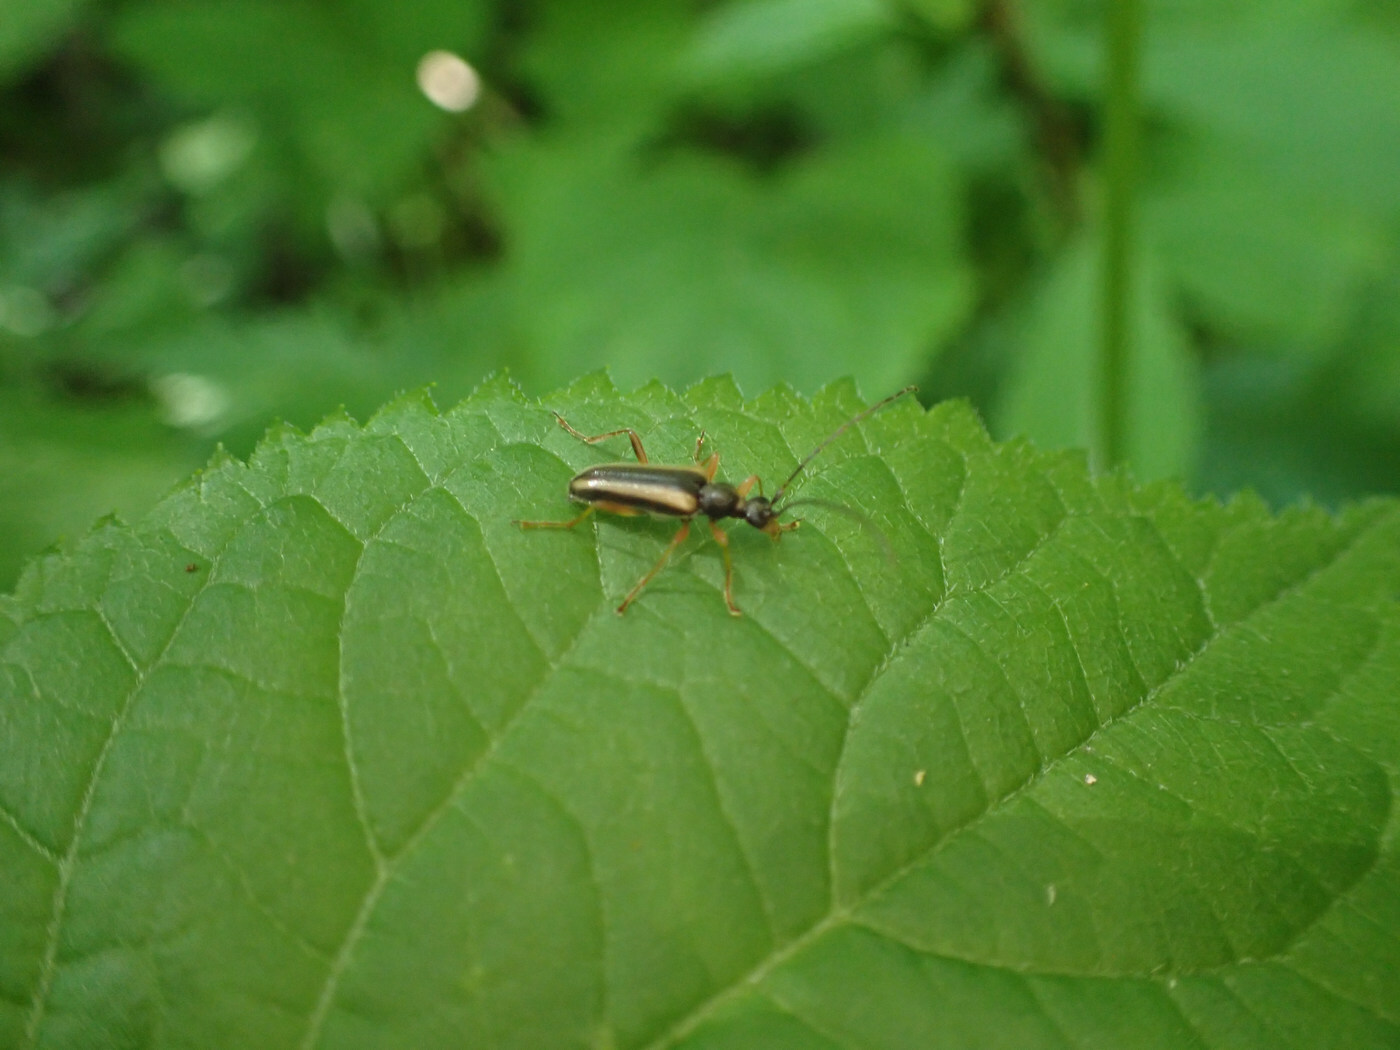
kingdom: Animalia
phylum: Arthropoda
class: Insecta
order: Coleoptera
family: Cerambycidae
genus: Pidonia
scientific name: Pidonia densicollis
